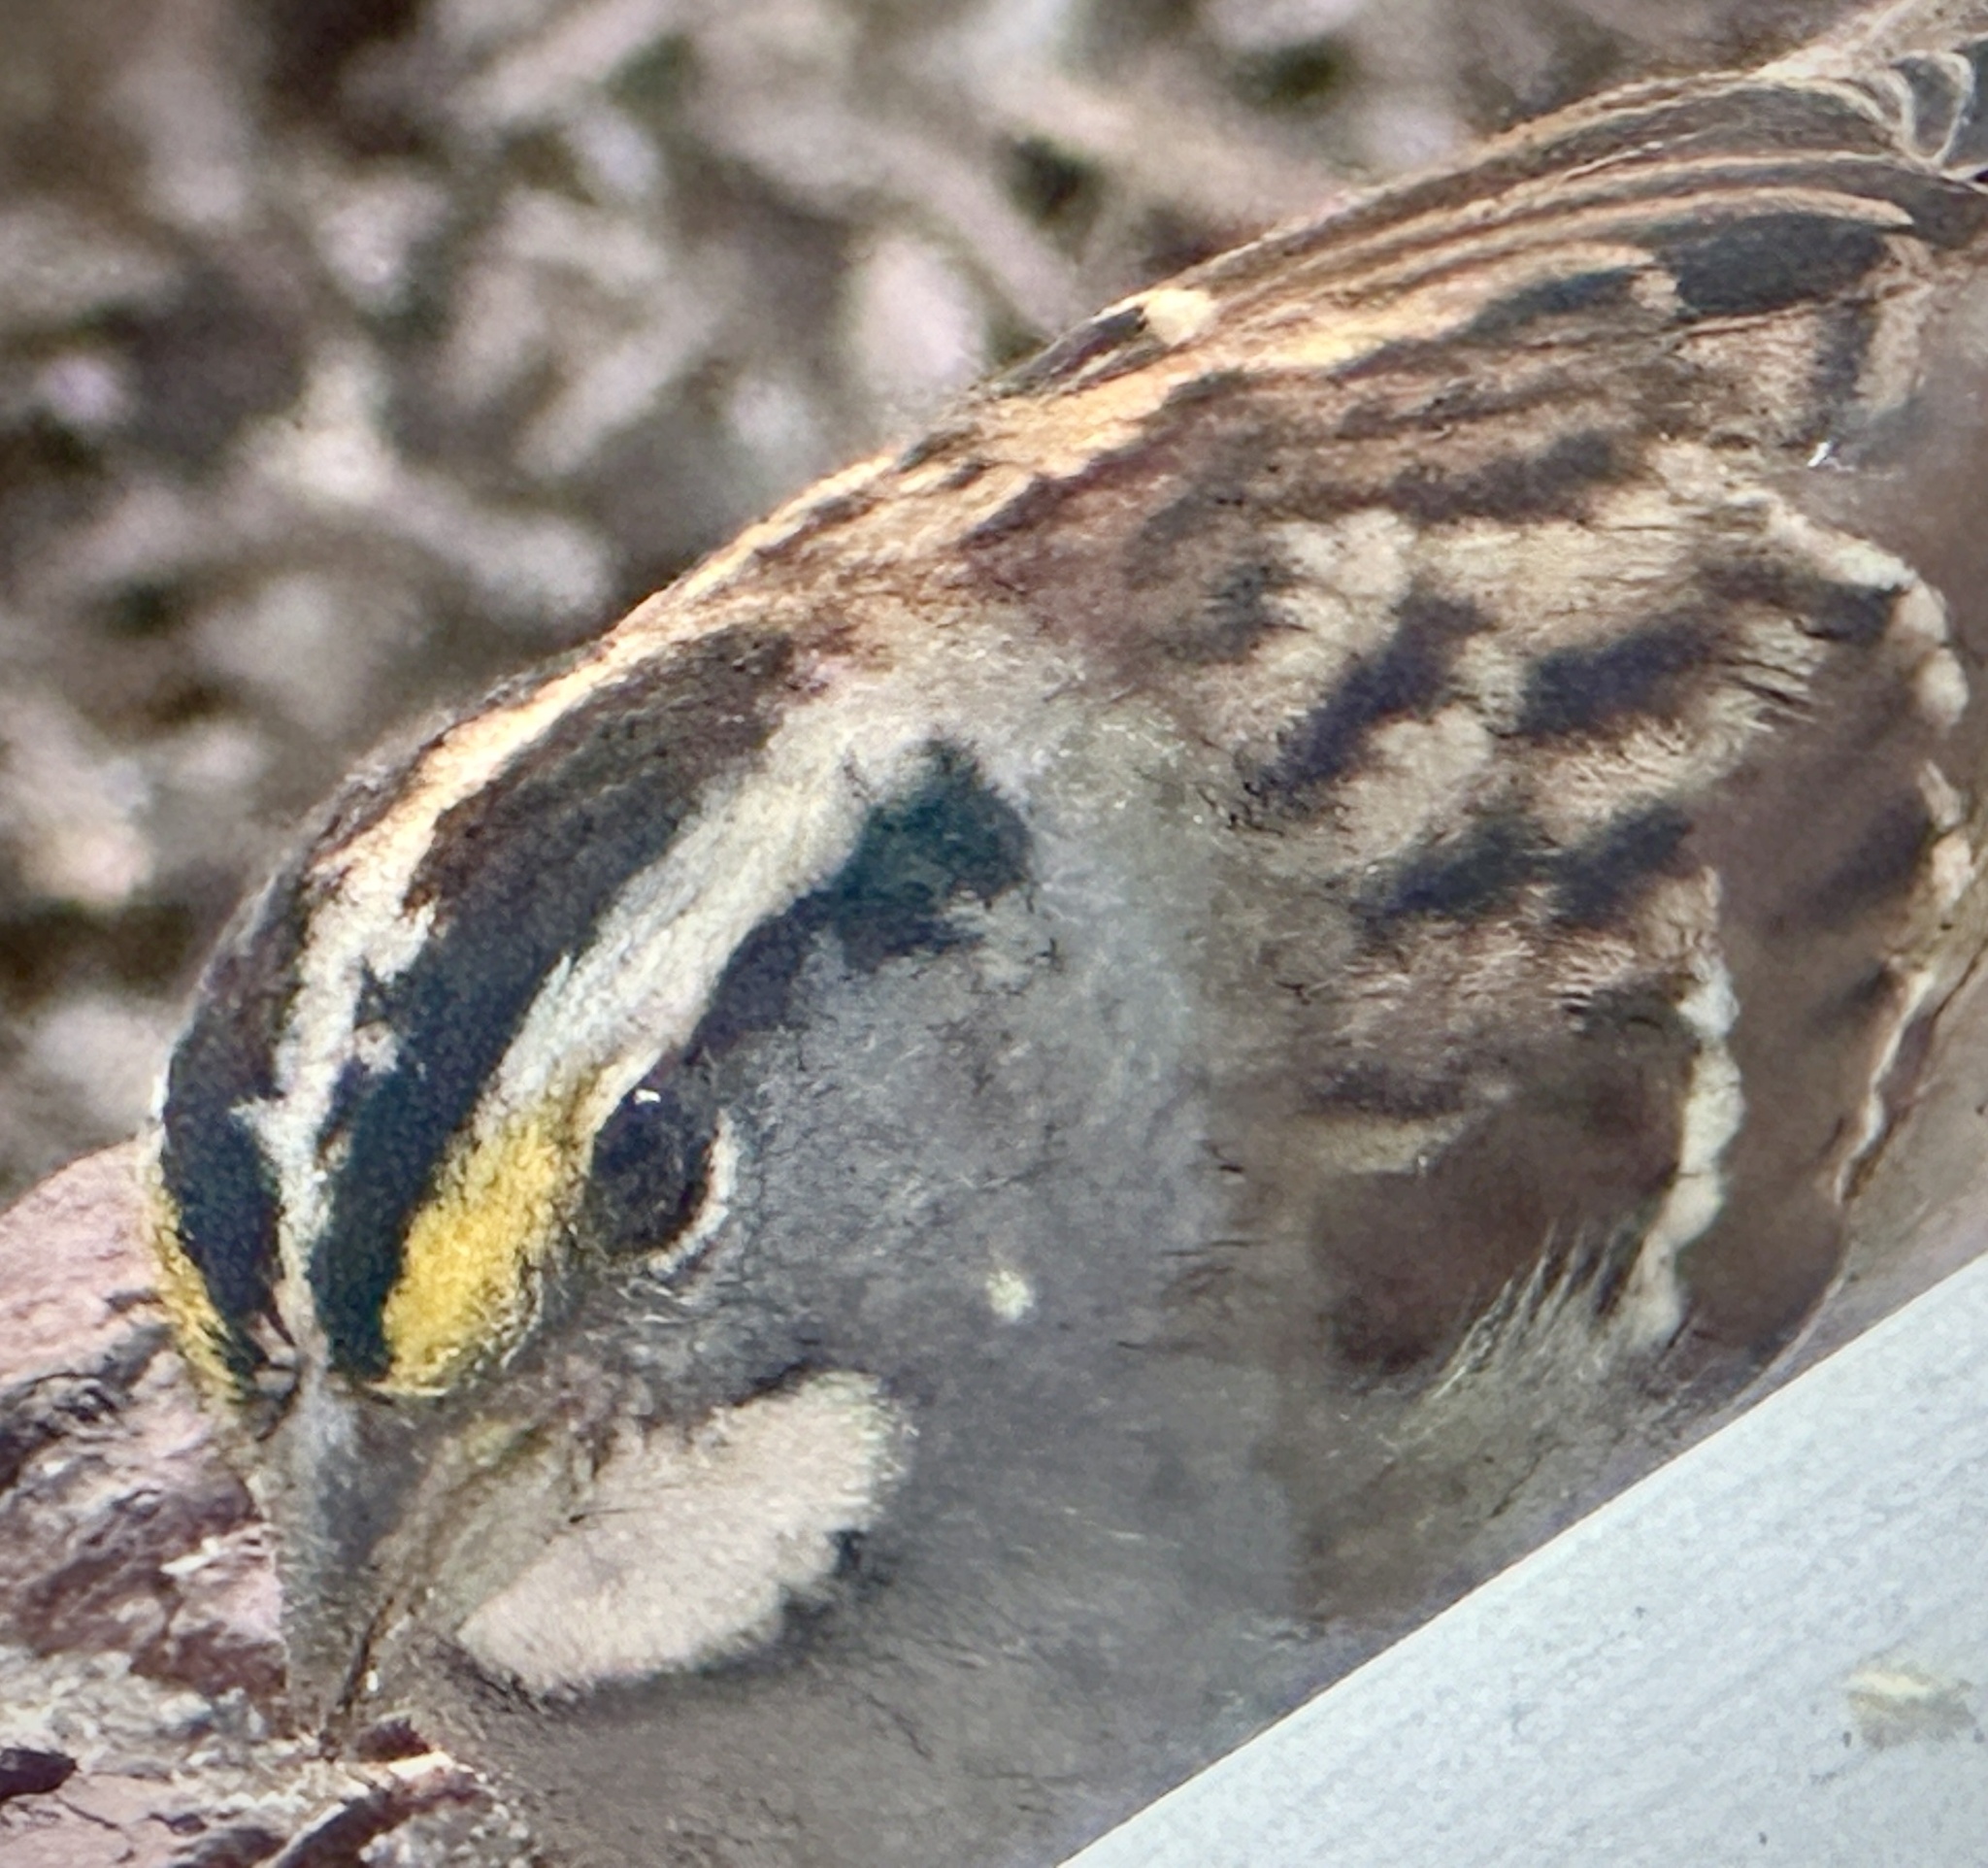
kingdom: Animalia
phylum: Chordata
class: Aves
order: Passeriformes
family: Passerellidae
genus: Zonotrichia
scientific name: Zonotrichia albicollis
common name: White-throated sparrow
